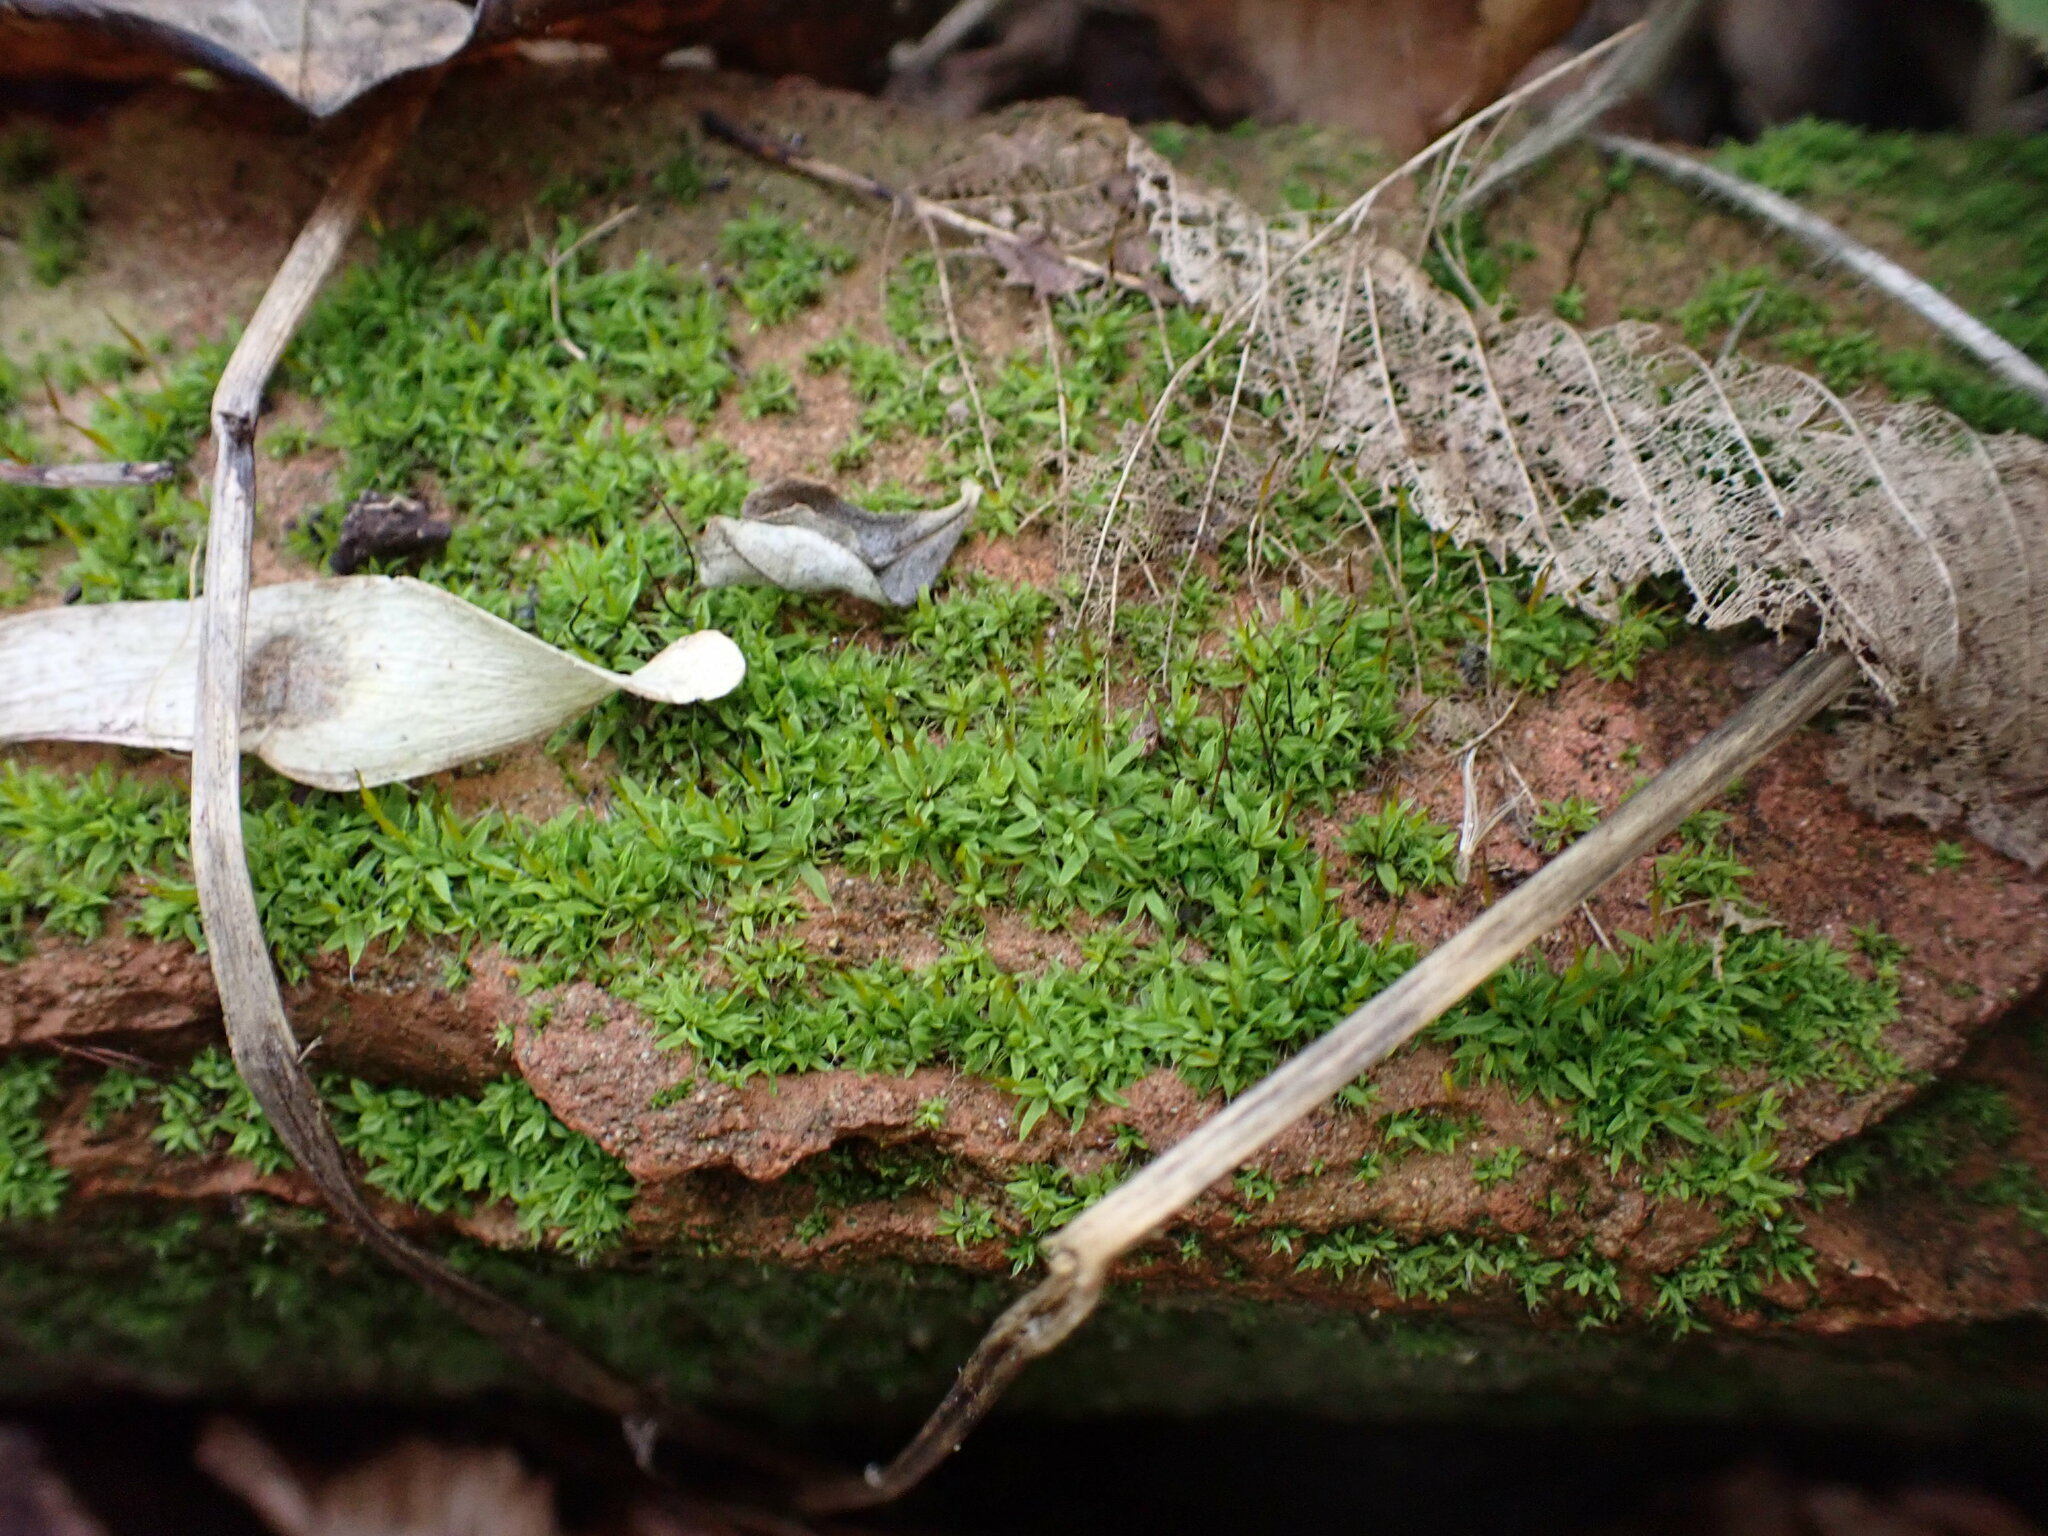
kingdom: Plantae
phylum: Bryophyta
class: Bryopsida
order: Pottiales
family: Pottiaceae
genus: Tortula
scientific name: Tortula muralis
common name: Wall screw-moss
